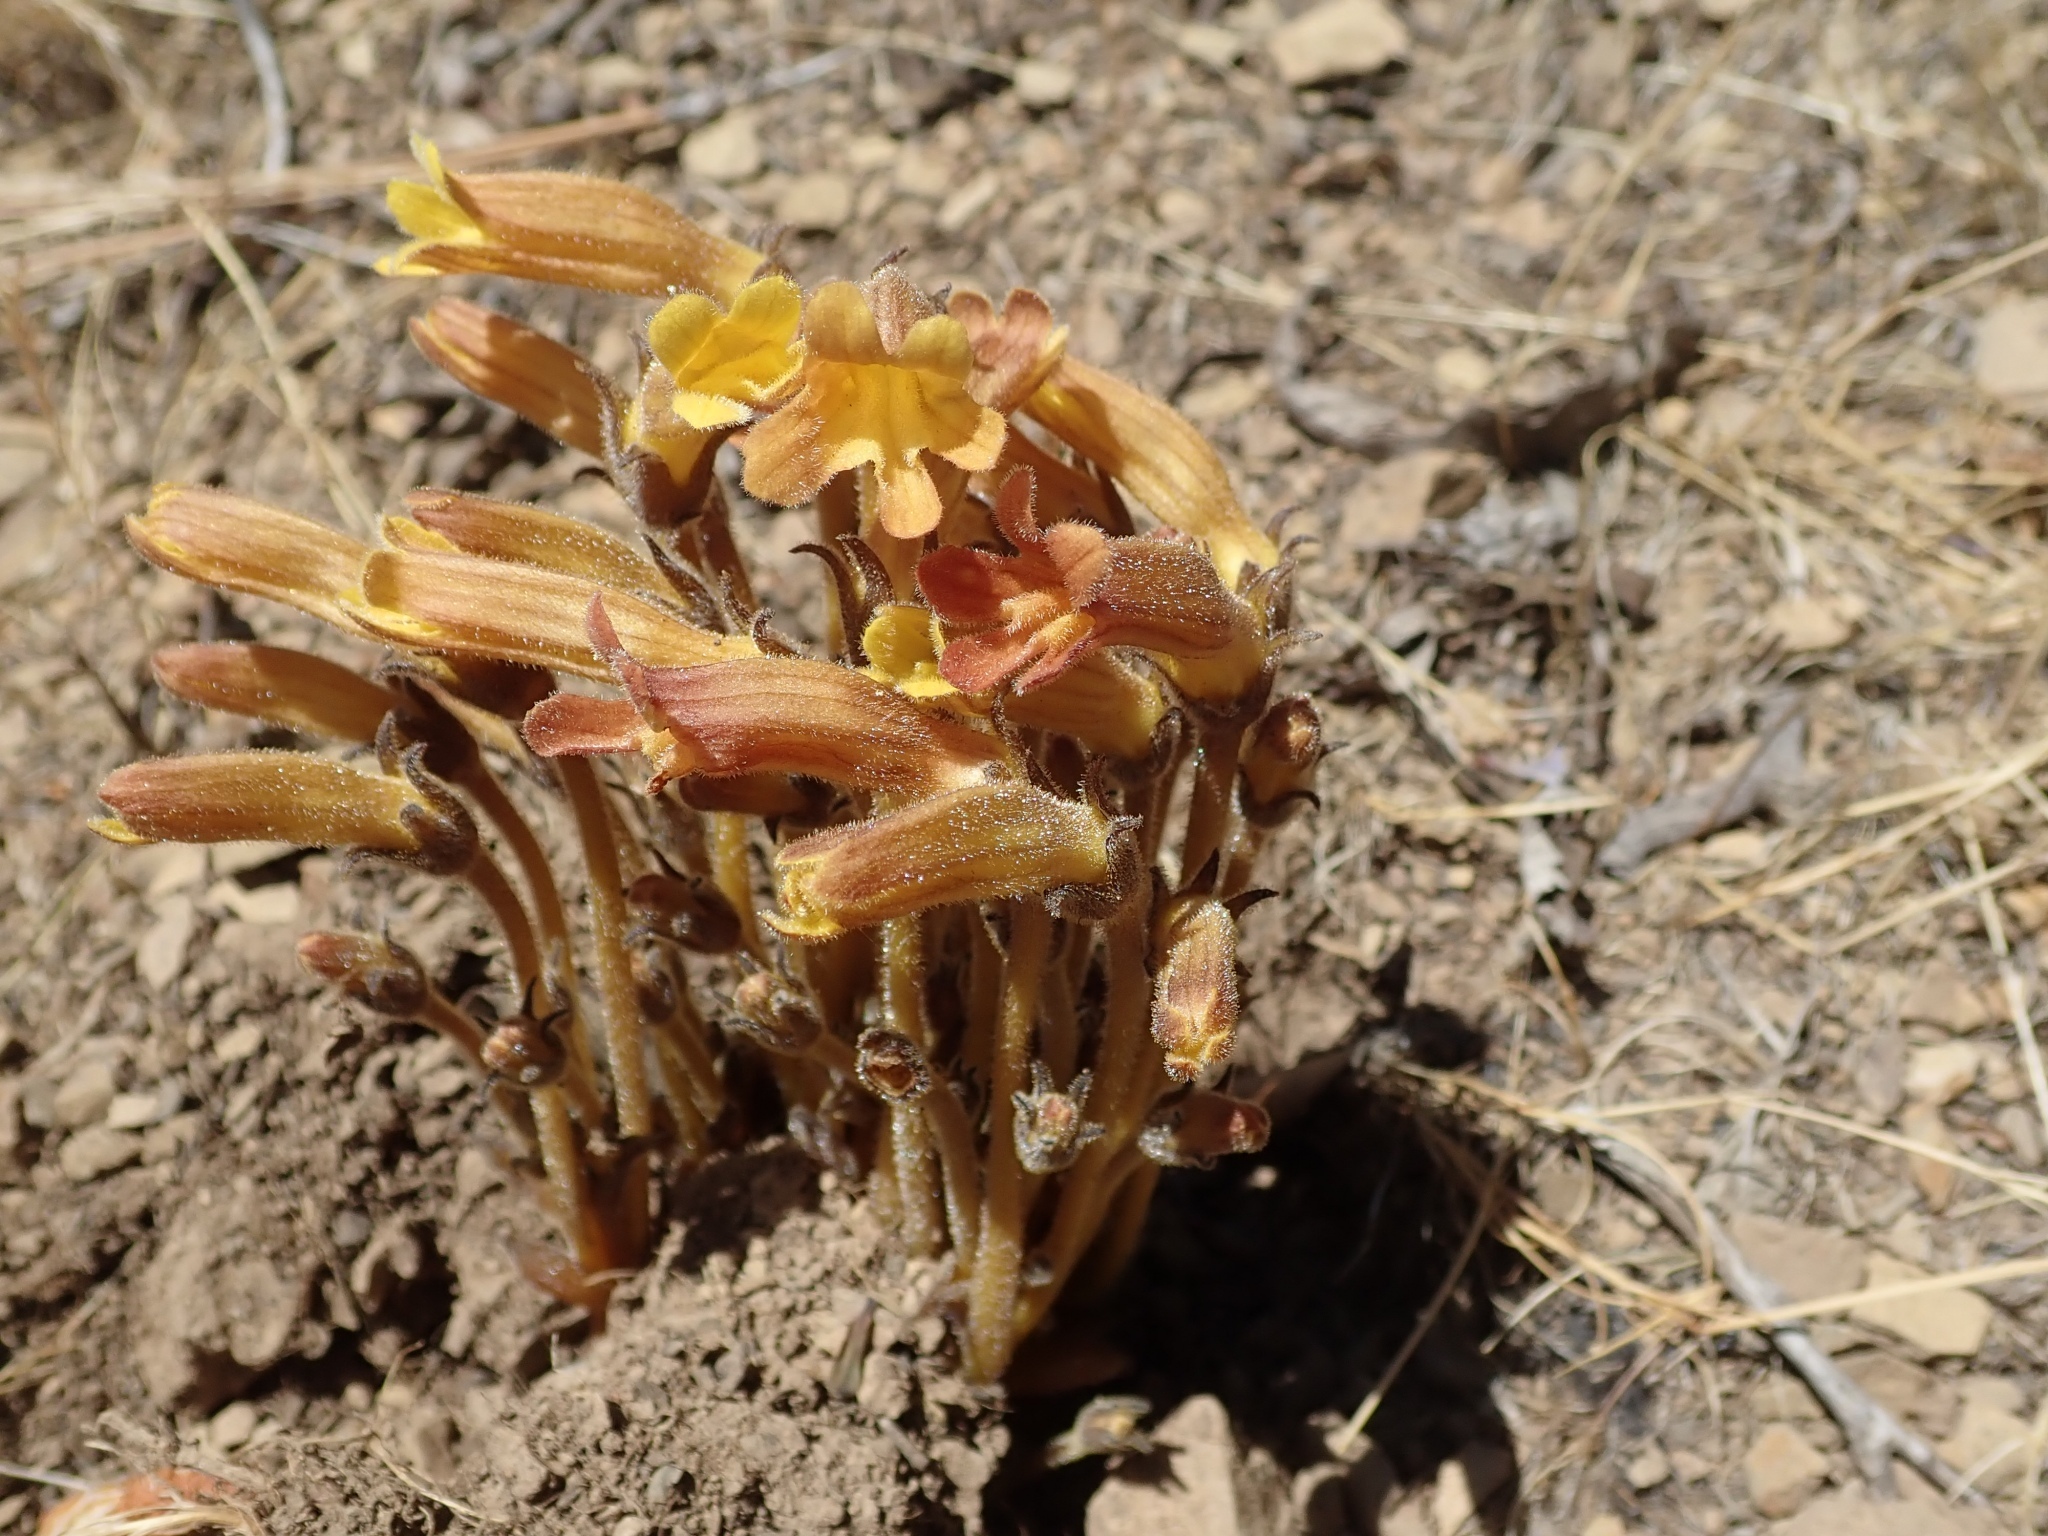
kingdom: Plantae
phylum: Tracheophyta
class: Magnoliopsida
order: Lamiales
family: Orobanchaceae
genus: Aphyllon
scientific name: Aphyllon franciscanum
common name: San francisco broomrape
